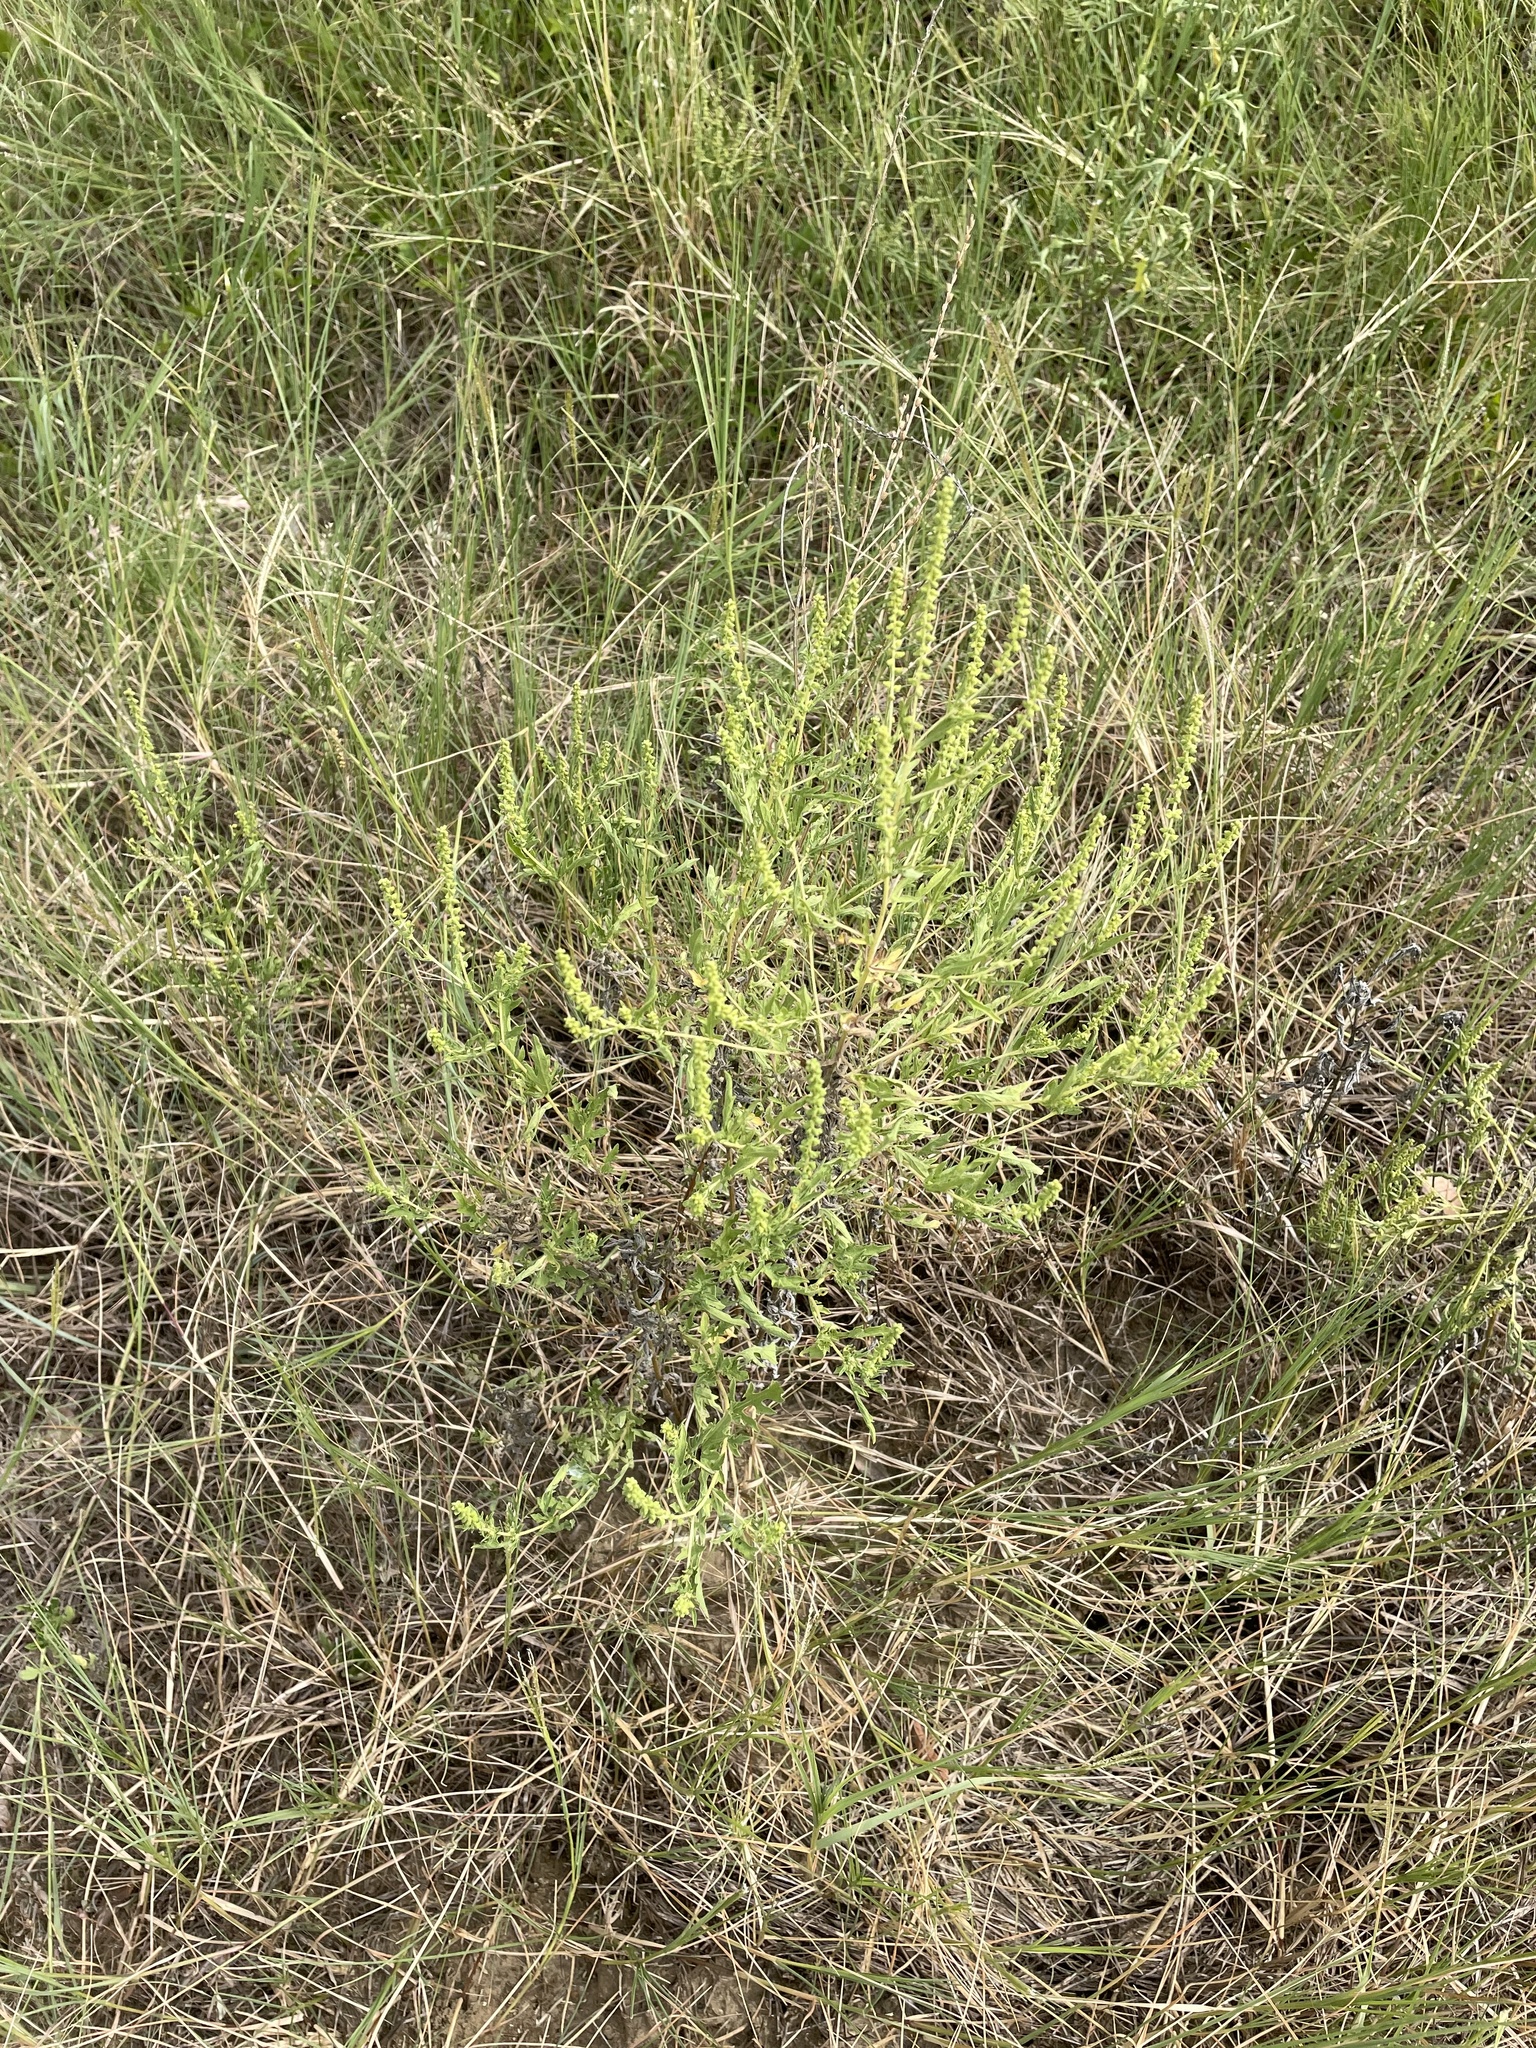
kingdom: Plantae
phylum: Tracheophyta
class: Magnoliopsida
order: Asterales
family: Asteraceae
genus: Ambrosia
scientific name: Ambrosia psilostachya
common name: Perennial ragweed
